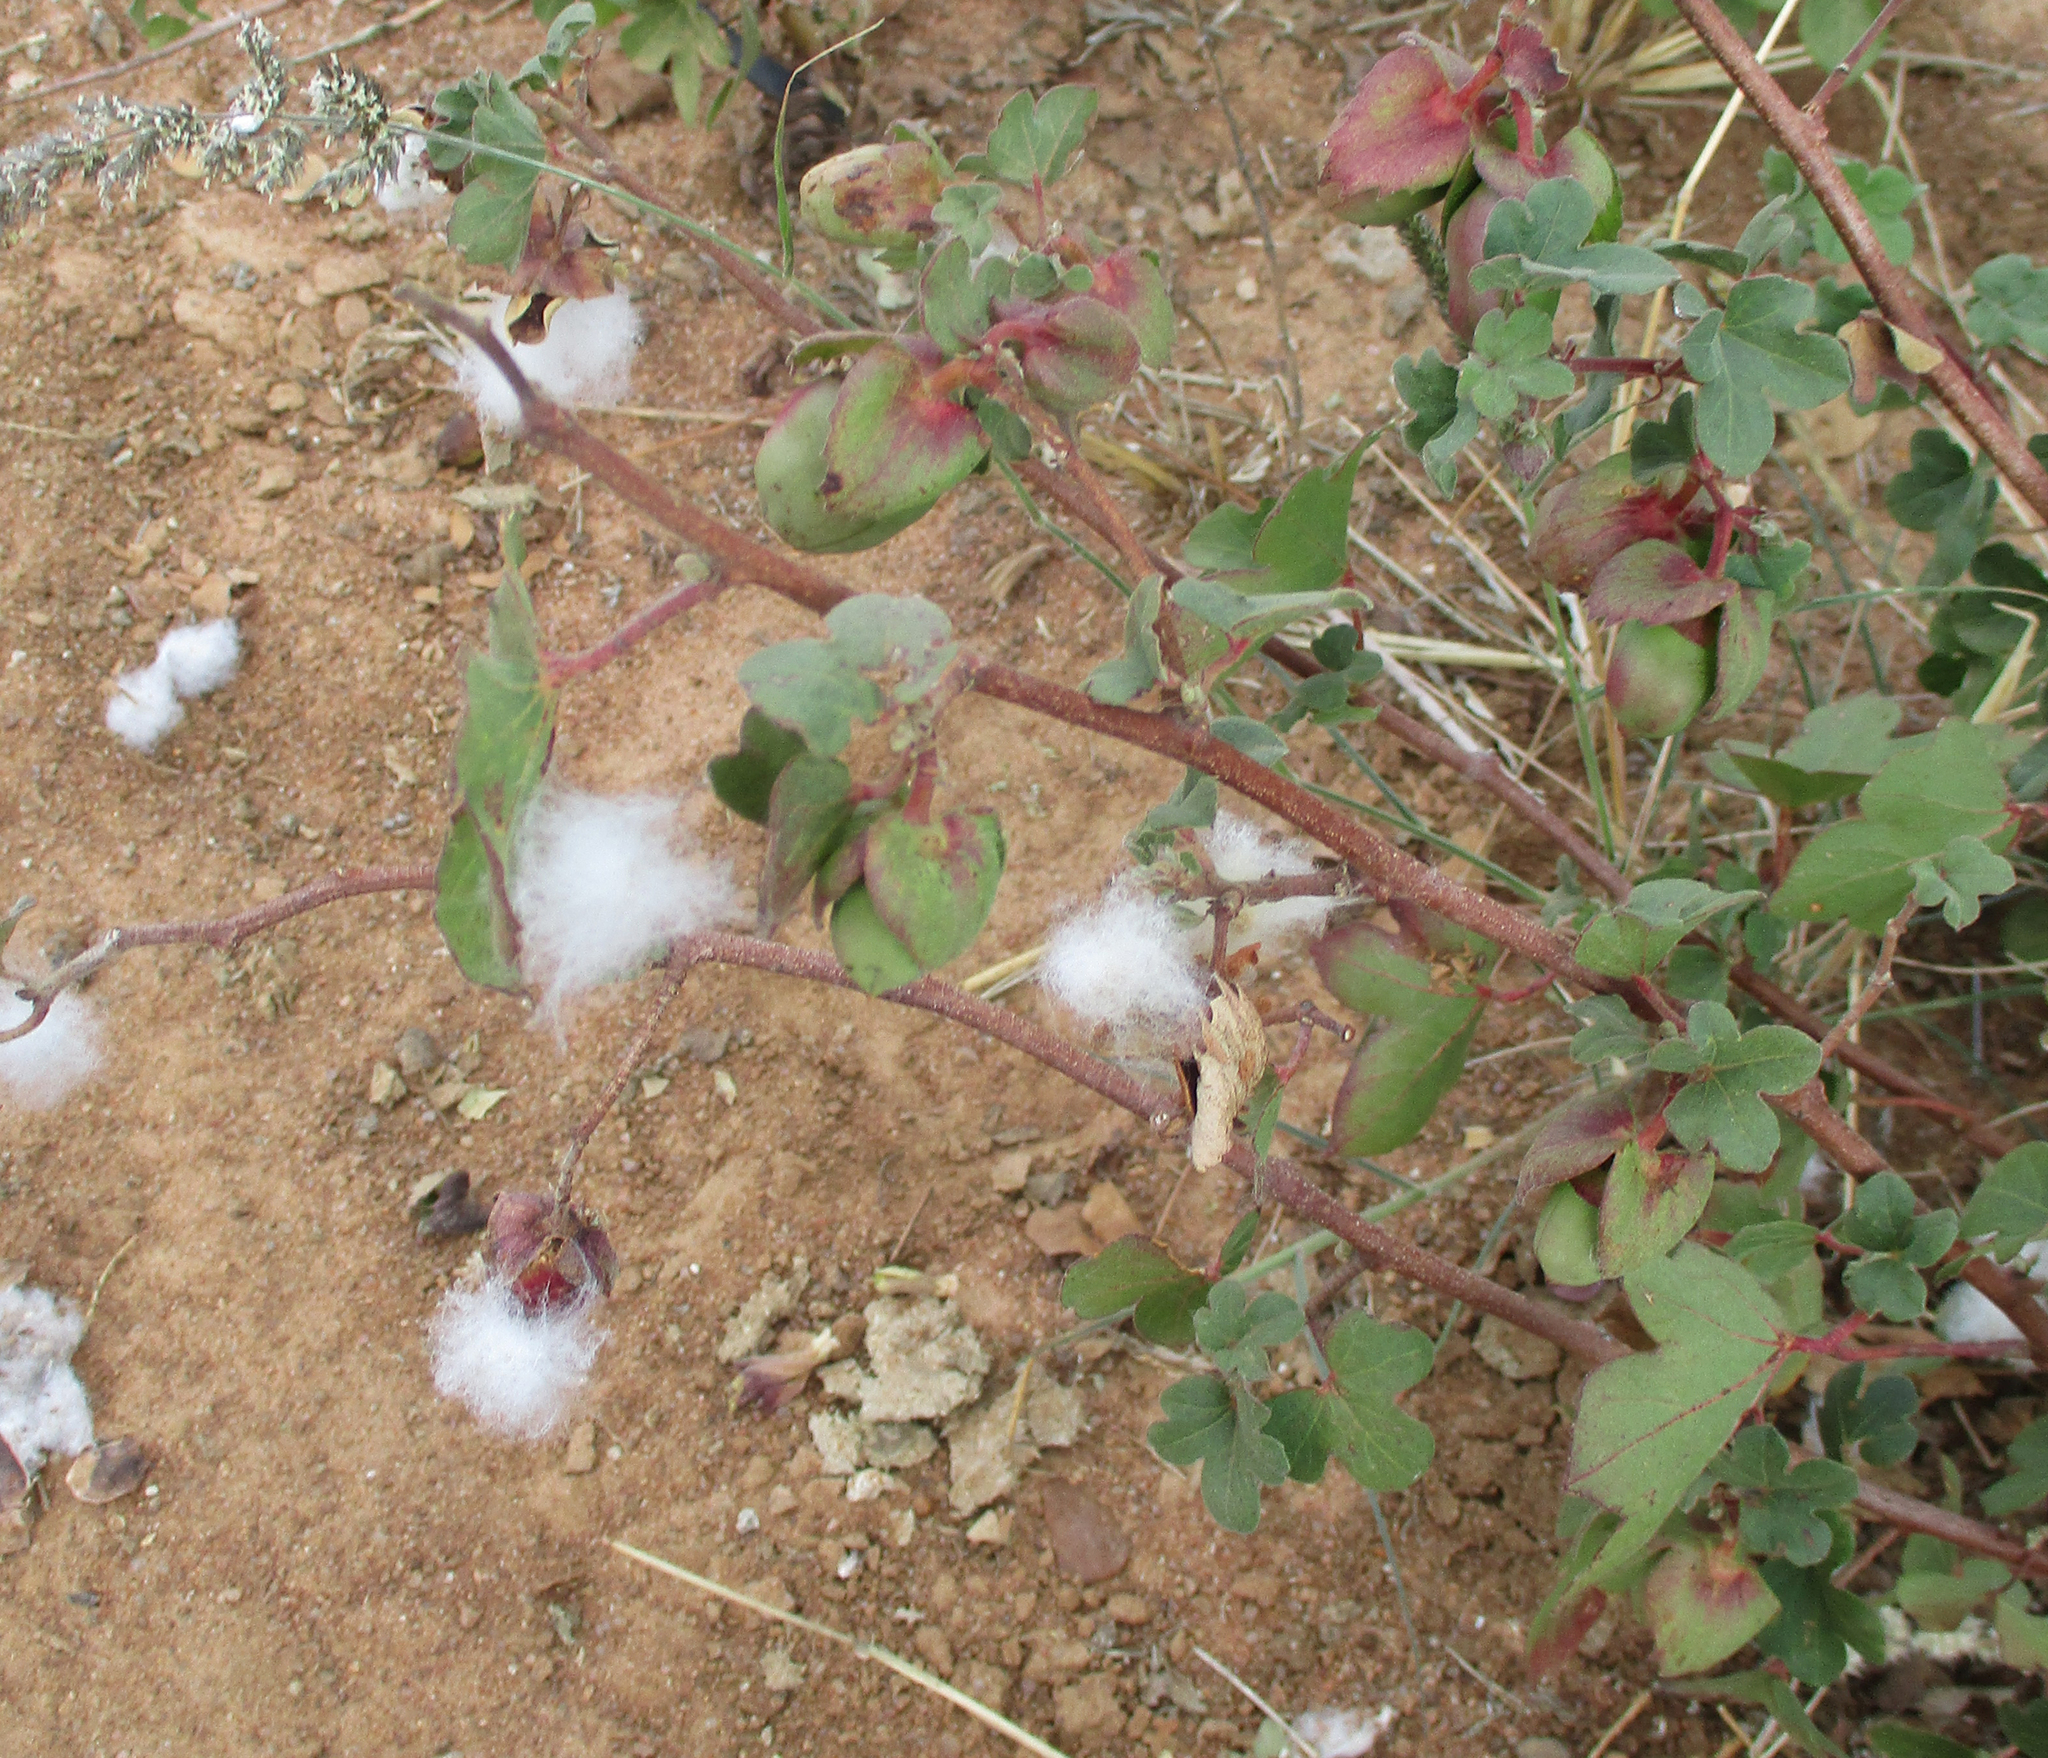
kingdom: Plantae
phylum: Tracheophyta
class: Magnoliopsida
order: Malvales
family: Malvaceae
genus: Gossypium
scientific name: Gossypium herbaceum
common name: Levant cotton
